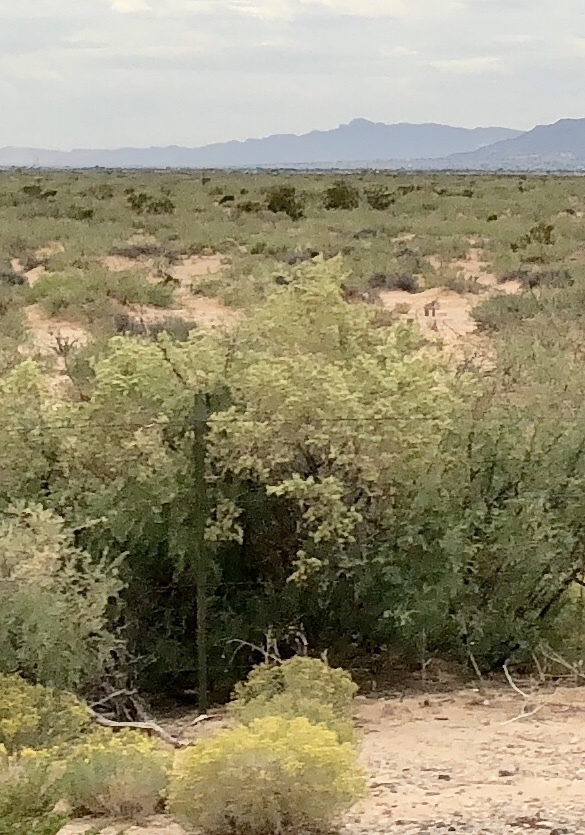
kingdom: Plantae
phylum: Tracheophyta
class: Magnoliopsida
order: Caryophyllales
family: Amaranthaceae
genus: Atriplex
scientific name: Atriplex canescens
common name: Four-wing saltbush
